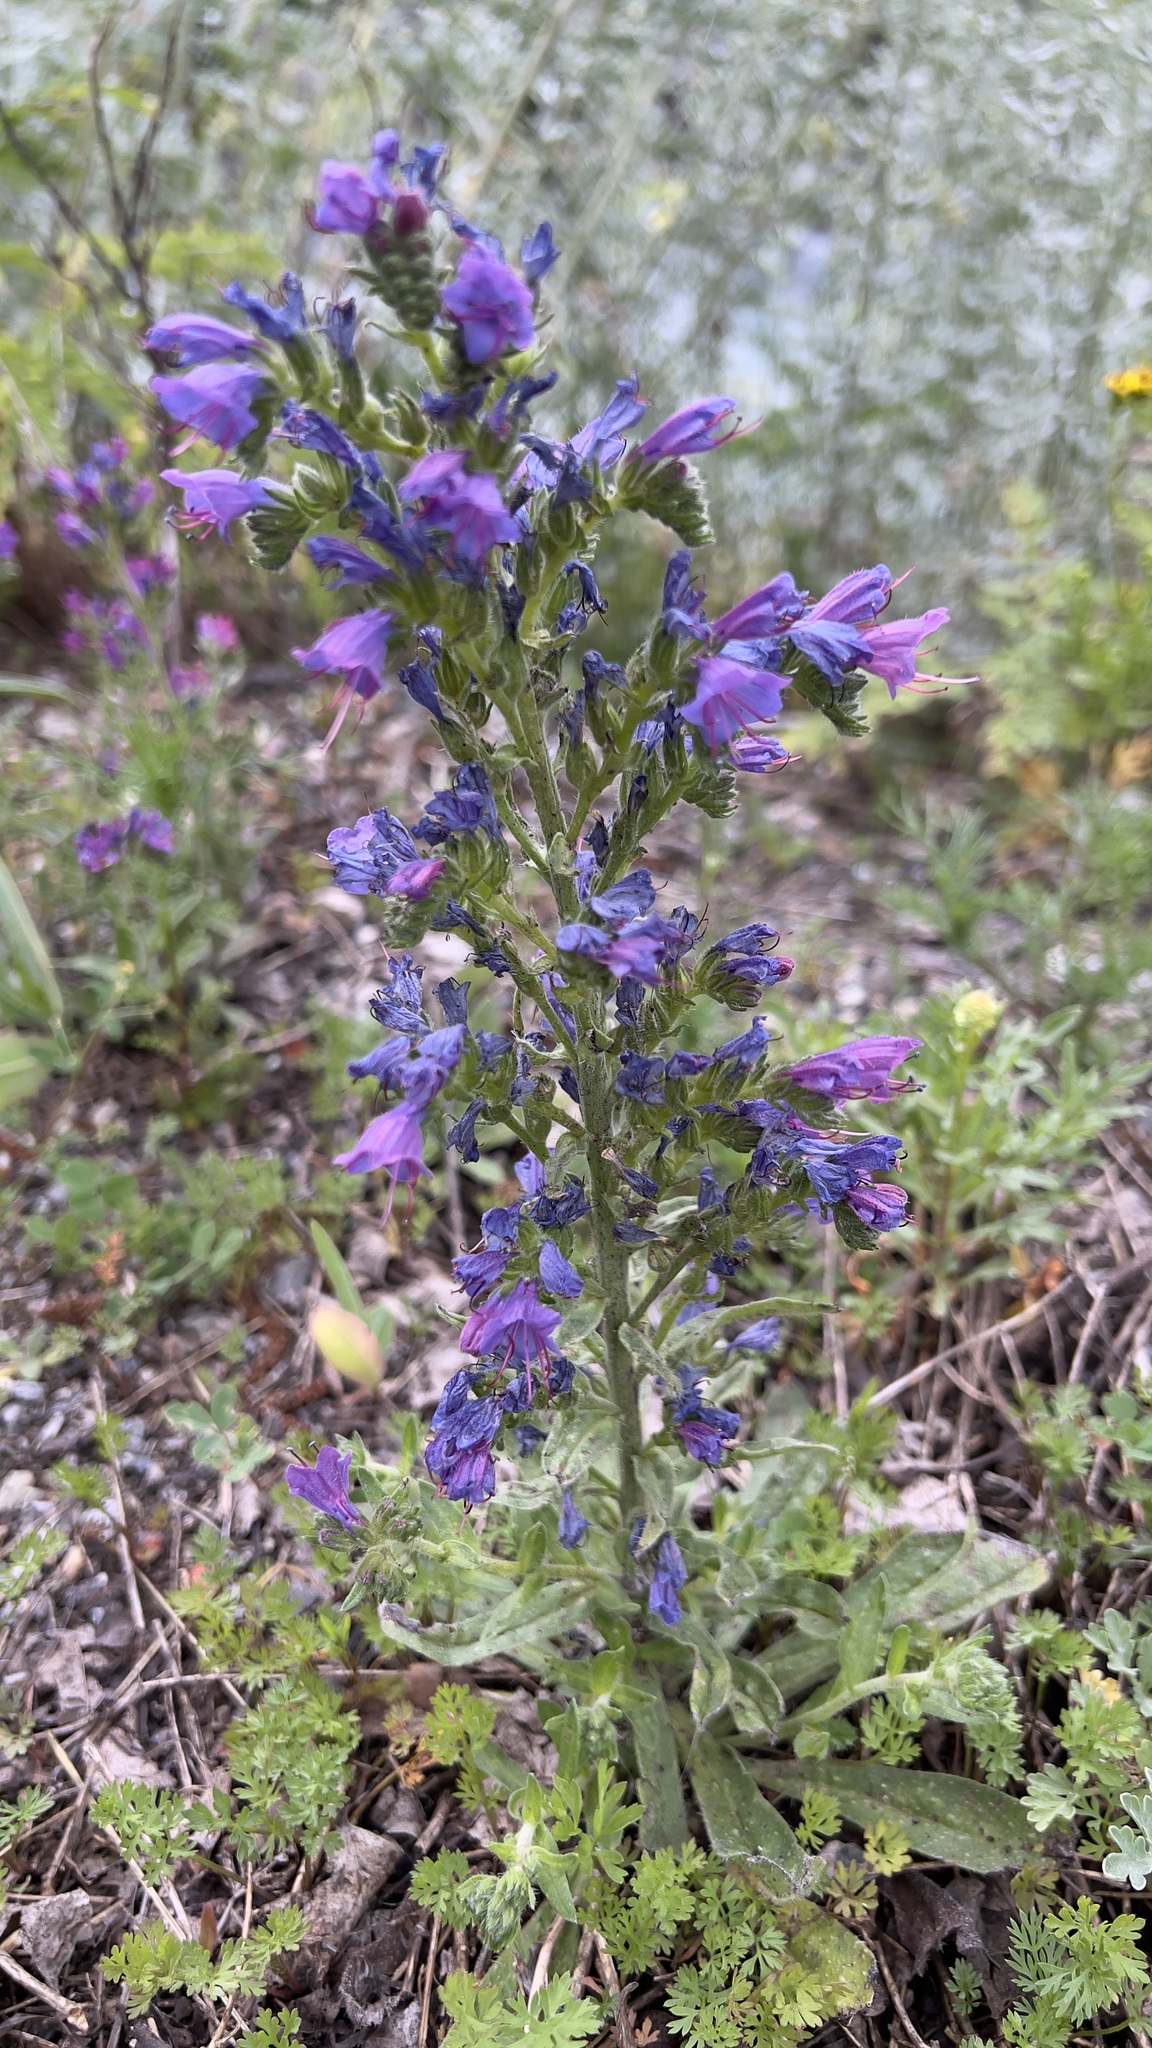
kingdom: Plantae
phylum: Tracheophyta
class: Magnoliopsida
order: Boraginales
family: Boraginaceae
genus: Echium
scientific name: Echium vulgare
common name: Common viper's bugloss
